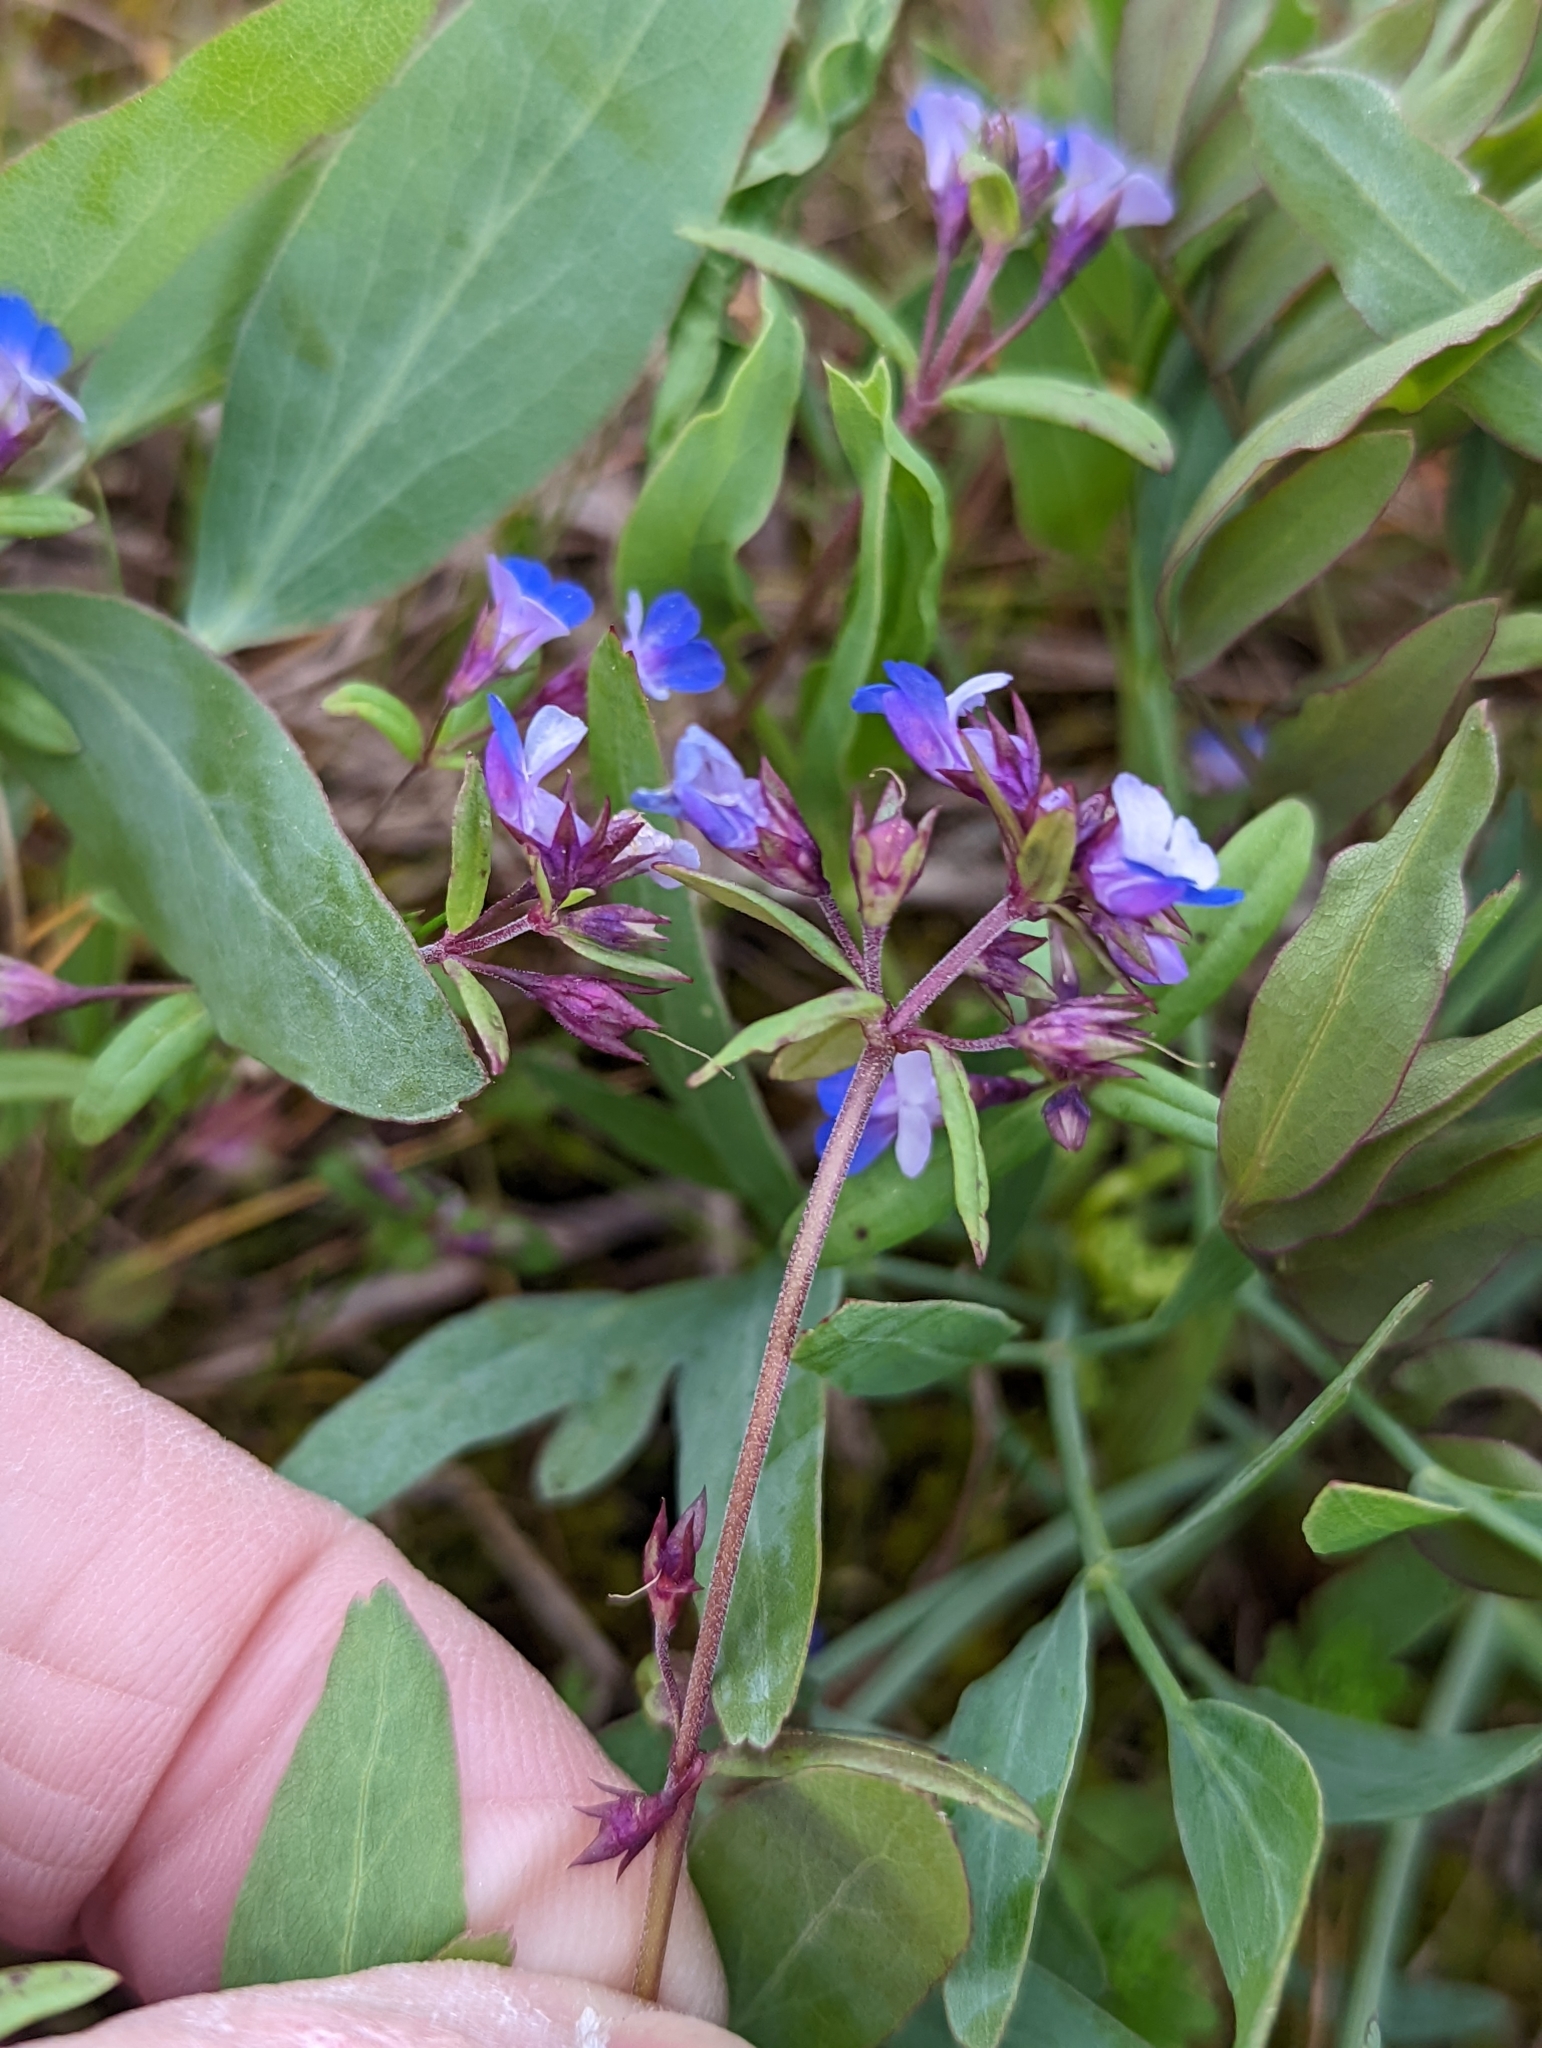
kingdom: Plantae
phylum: Tracheophyta
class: Magnoliopsida
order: Lamiales
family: Plantaginaceae
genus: Collinsia
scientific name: Collinsia parviflora
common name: Blue-lips
